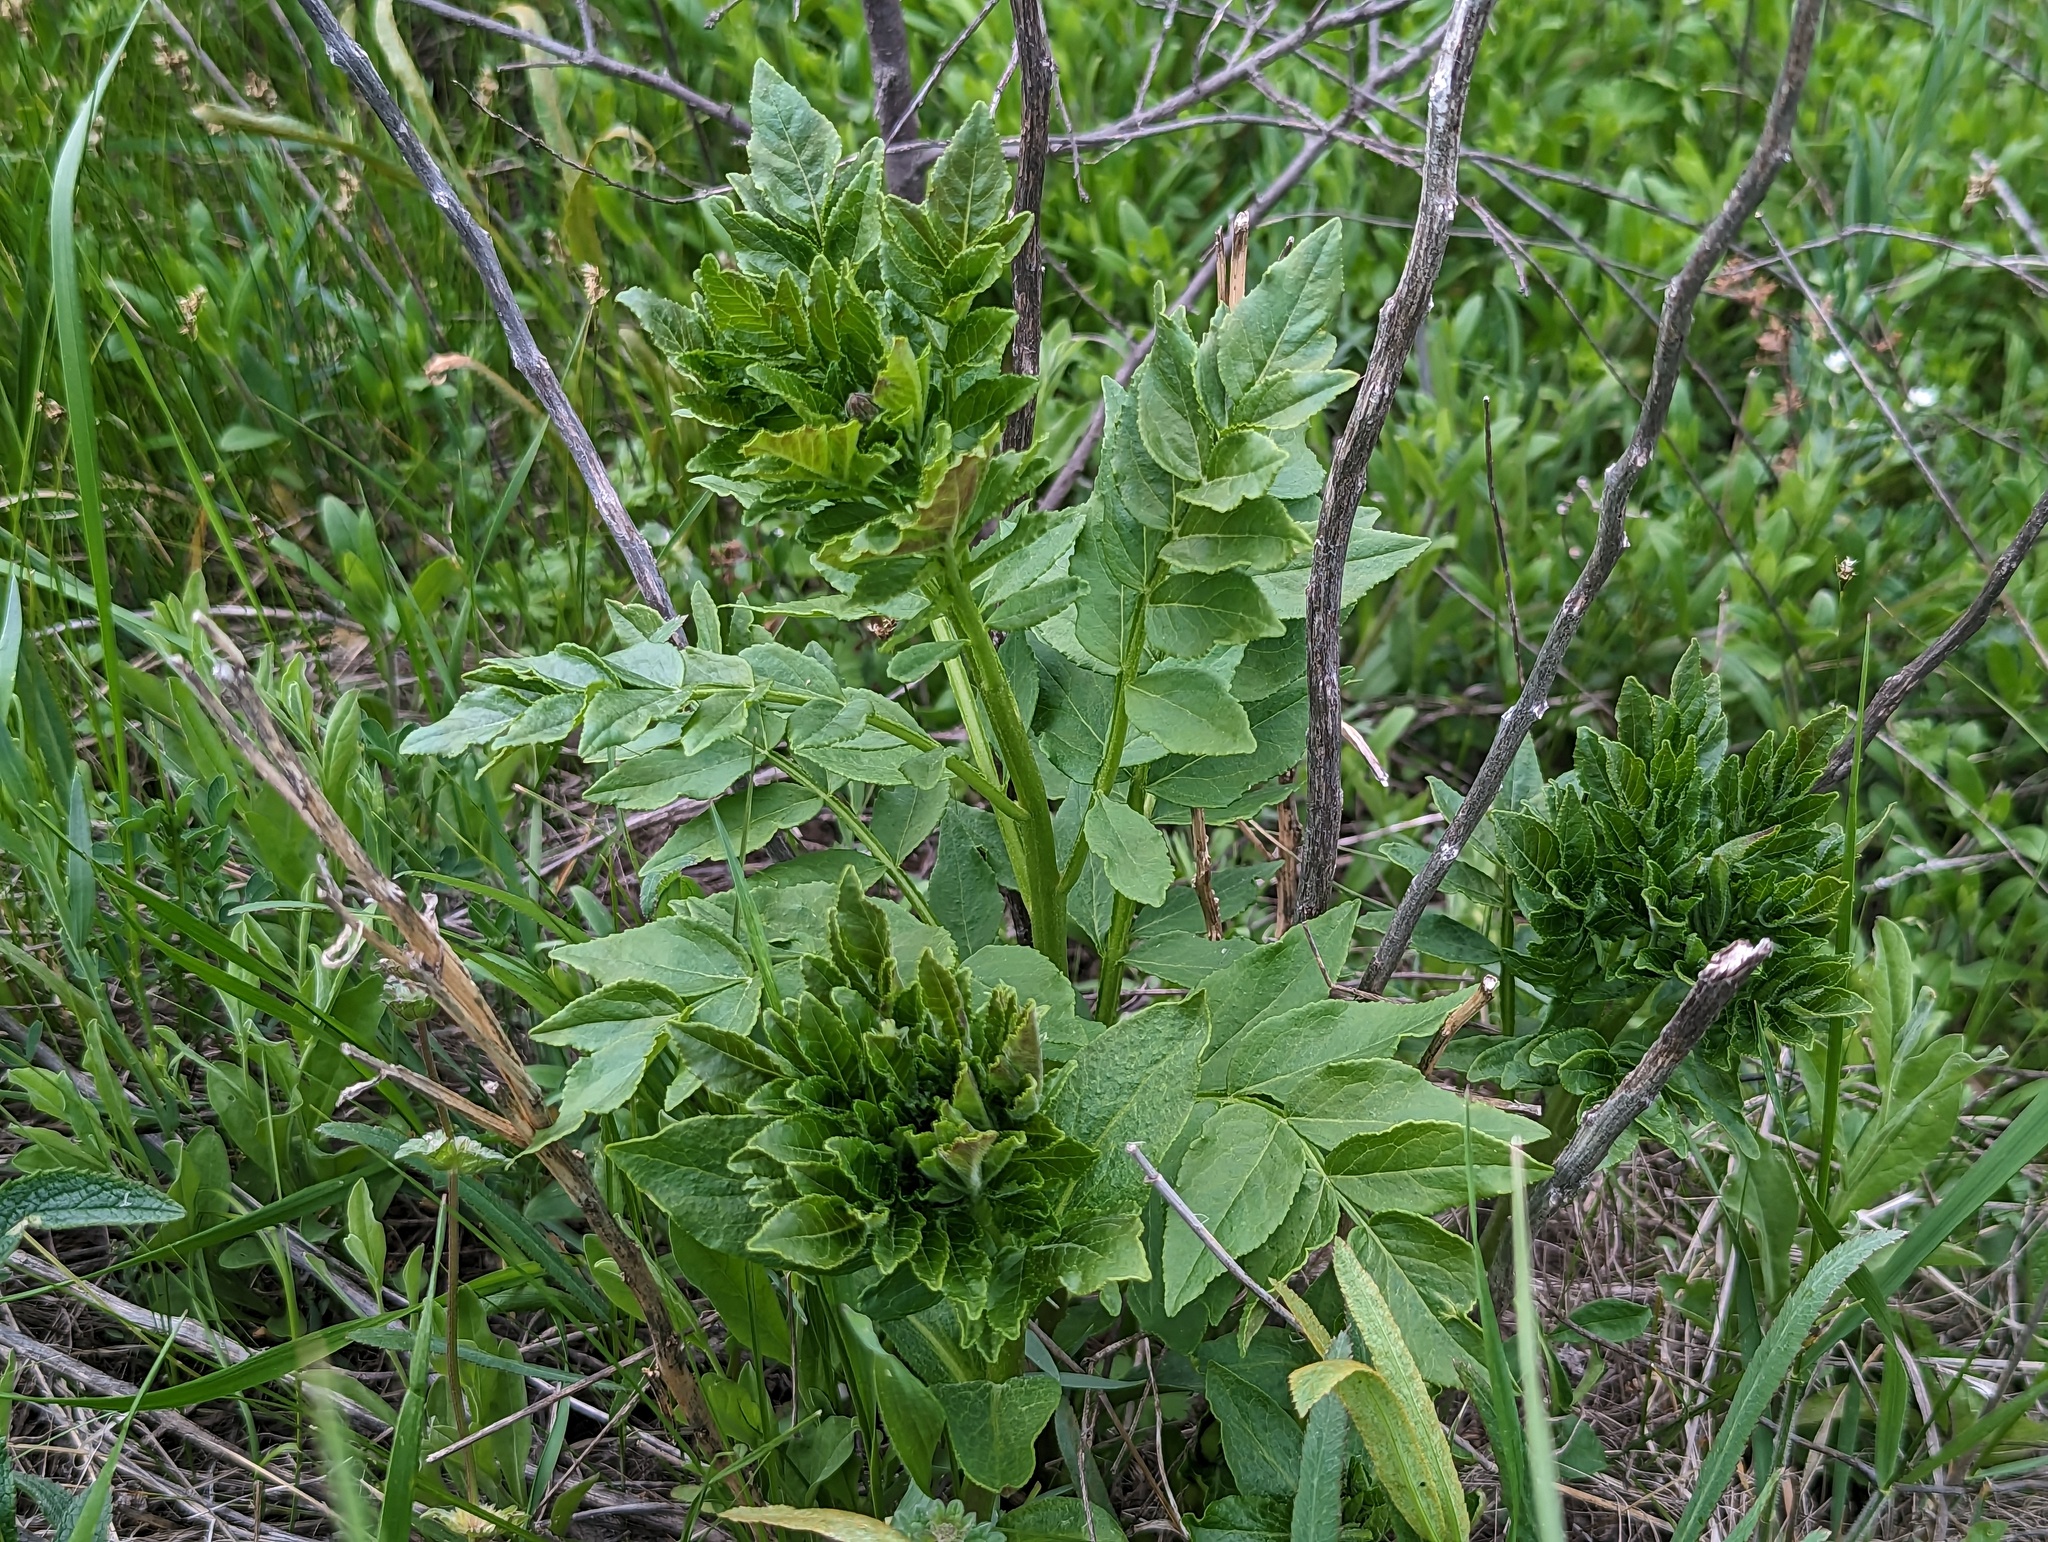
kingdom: Plantae
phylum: Tracheophyta
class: Magnoliopsida
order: Sapindales
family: Rutaceae
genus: Dictamnus
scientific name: Dictamnus albus
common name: Gasplant
